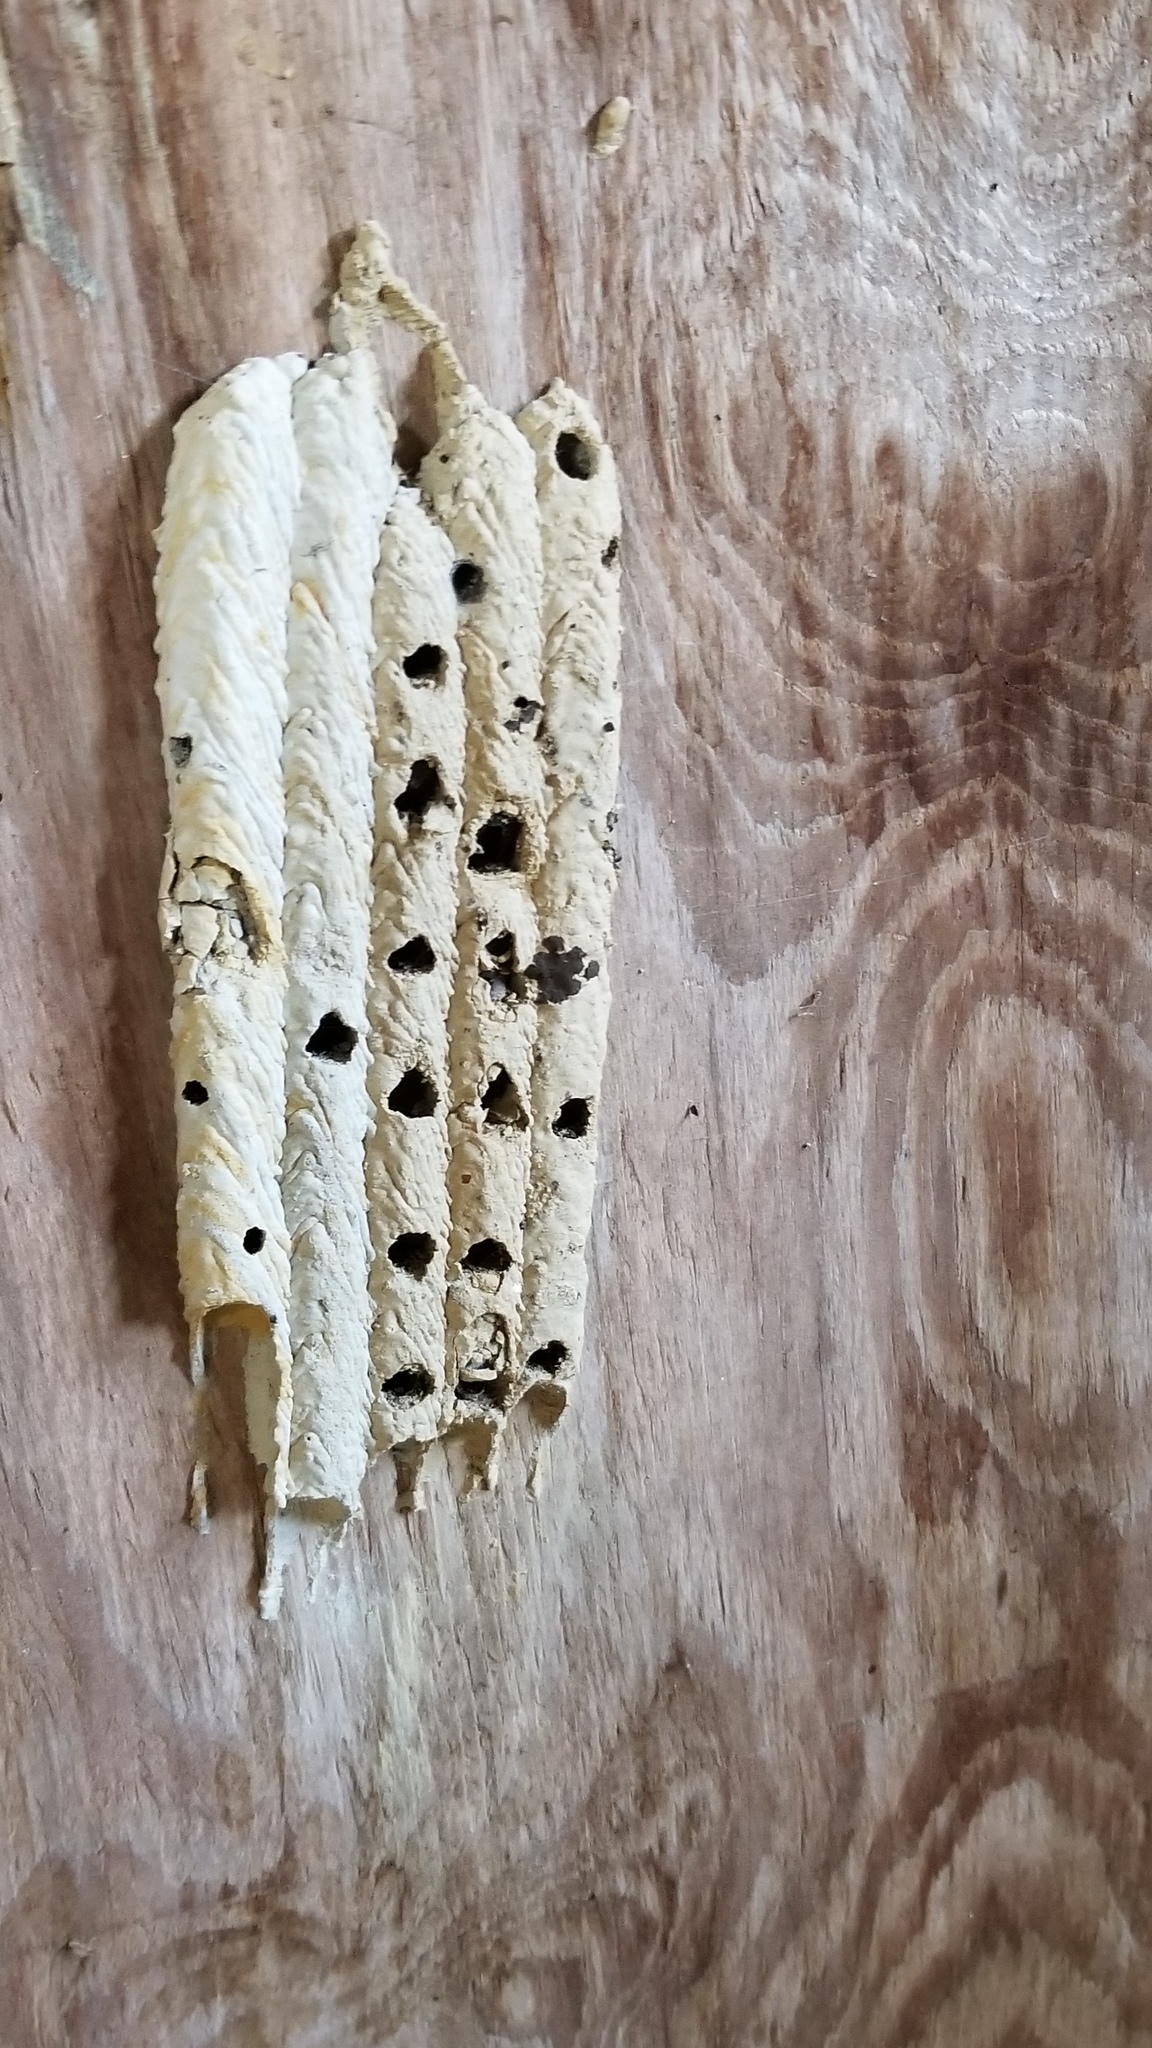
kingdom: Animalia
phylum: Arthropoda
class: Insecta
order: Hymenoptera
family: Crabronidae
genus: Trypoxylon
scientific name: Trypoxylon politum
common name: Organ-pipe mud-dauber wasp
